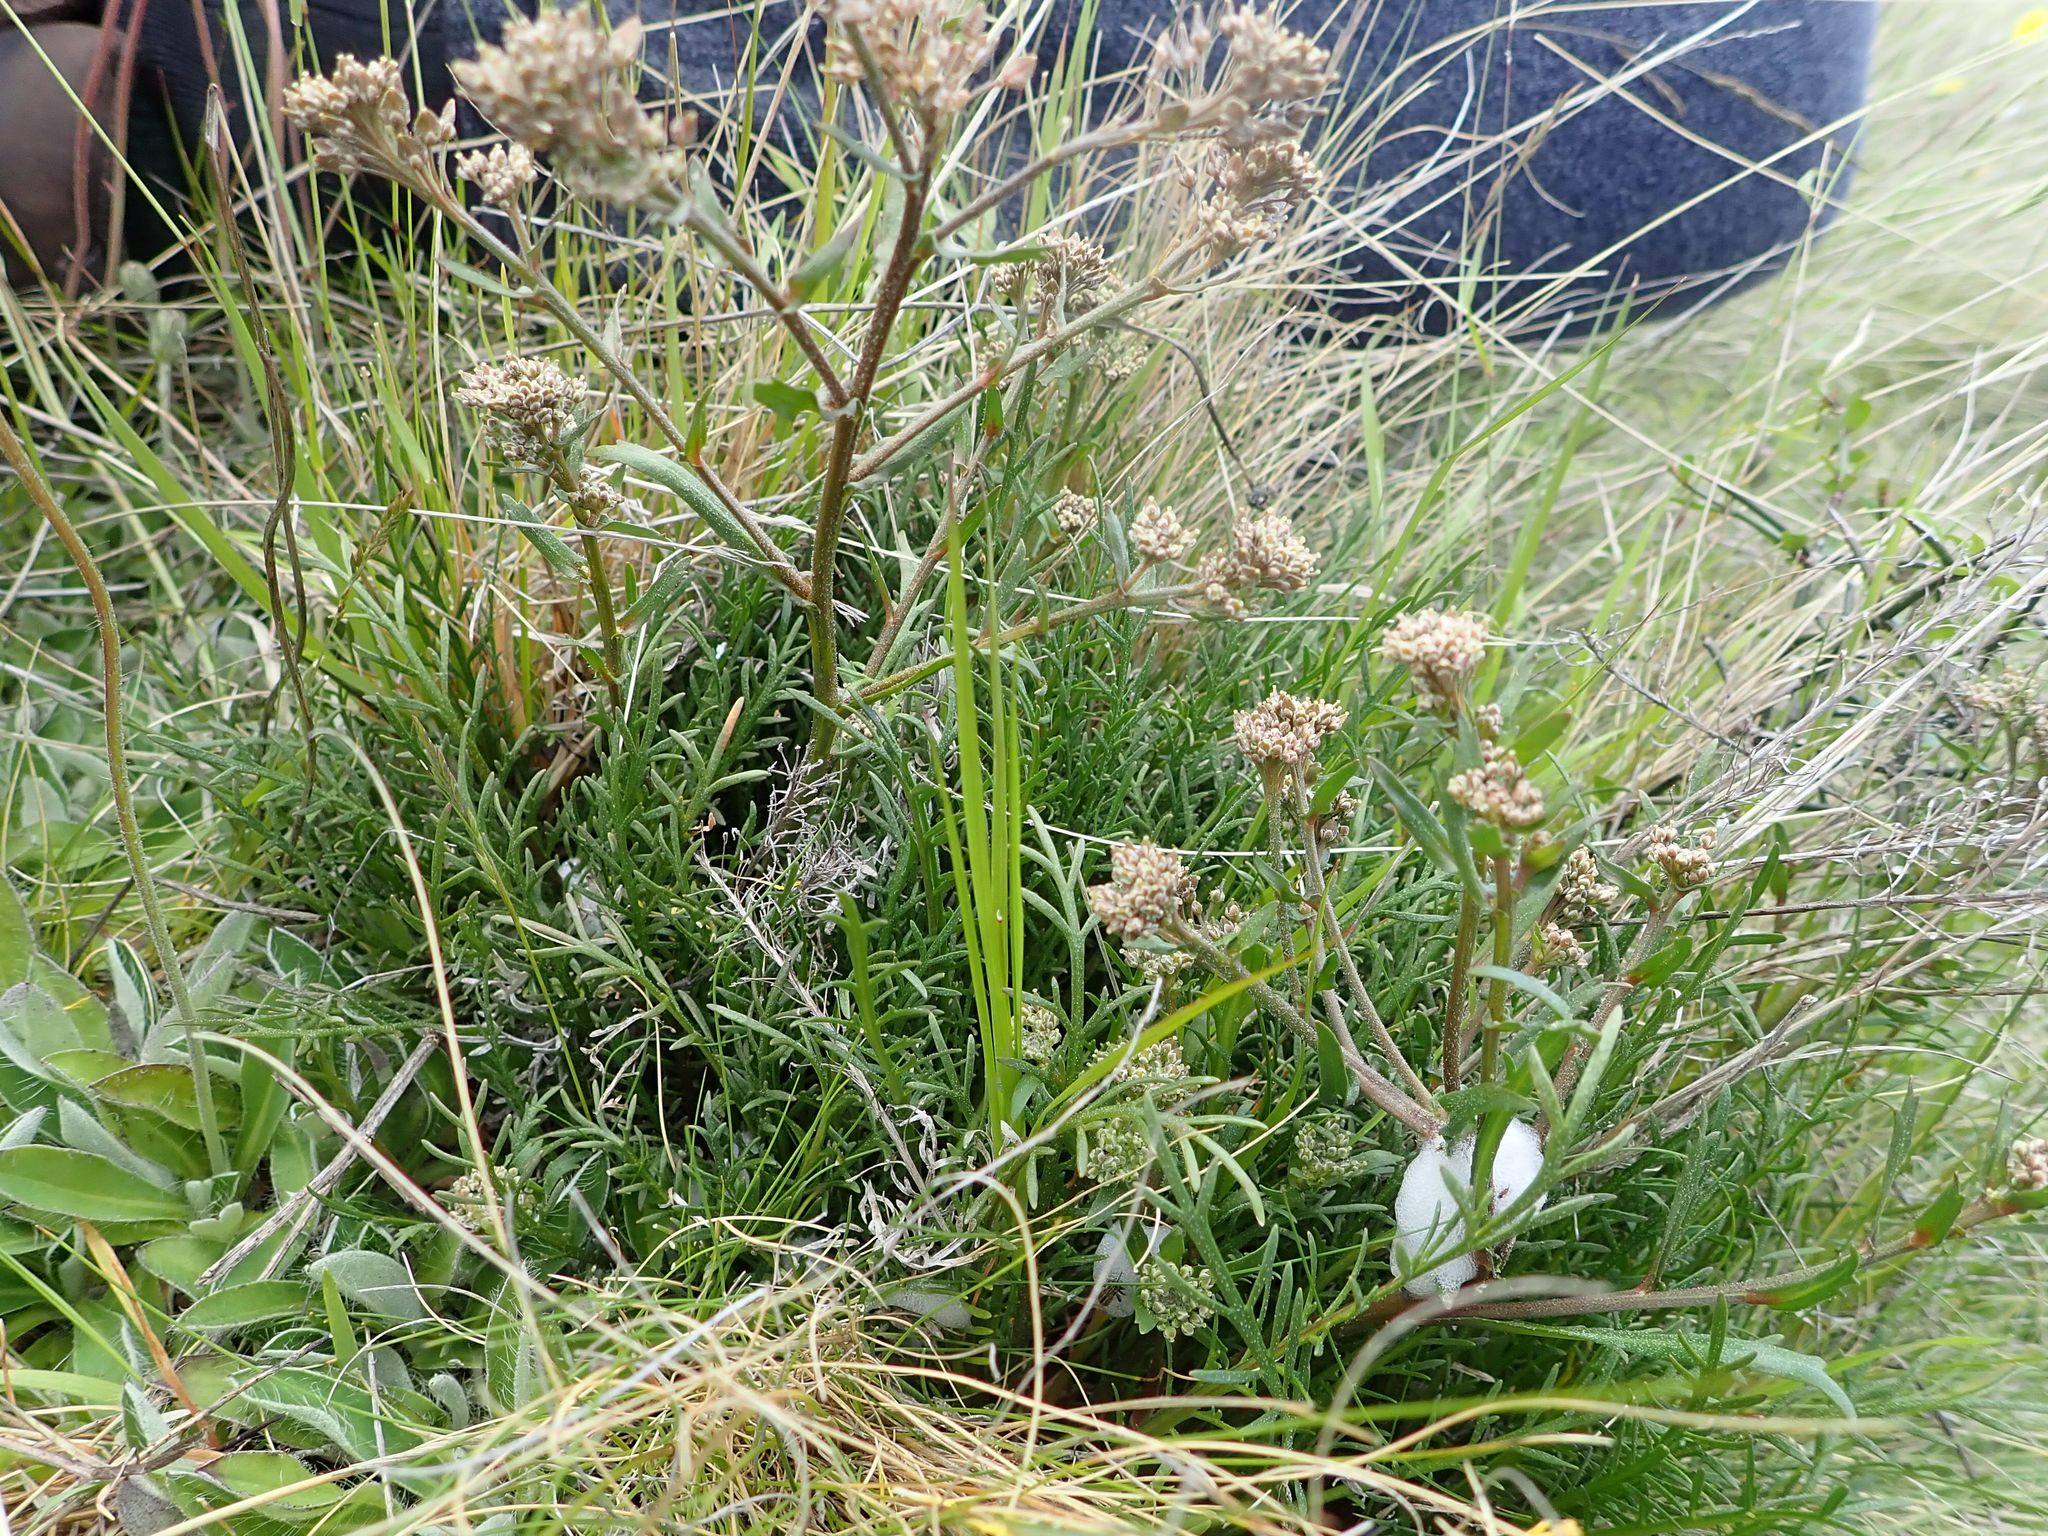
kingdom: Plantae
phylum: Tracheophyta
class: Magnoliopsida
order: Brassicales
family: Brassicaceae
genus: Lepidium
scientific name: Lepidium sisymbrioides
